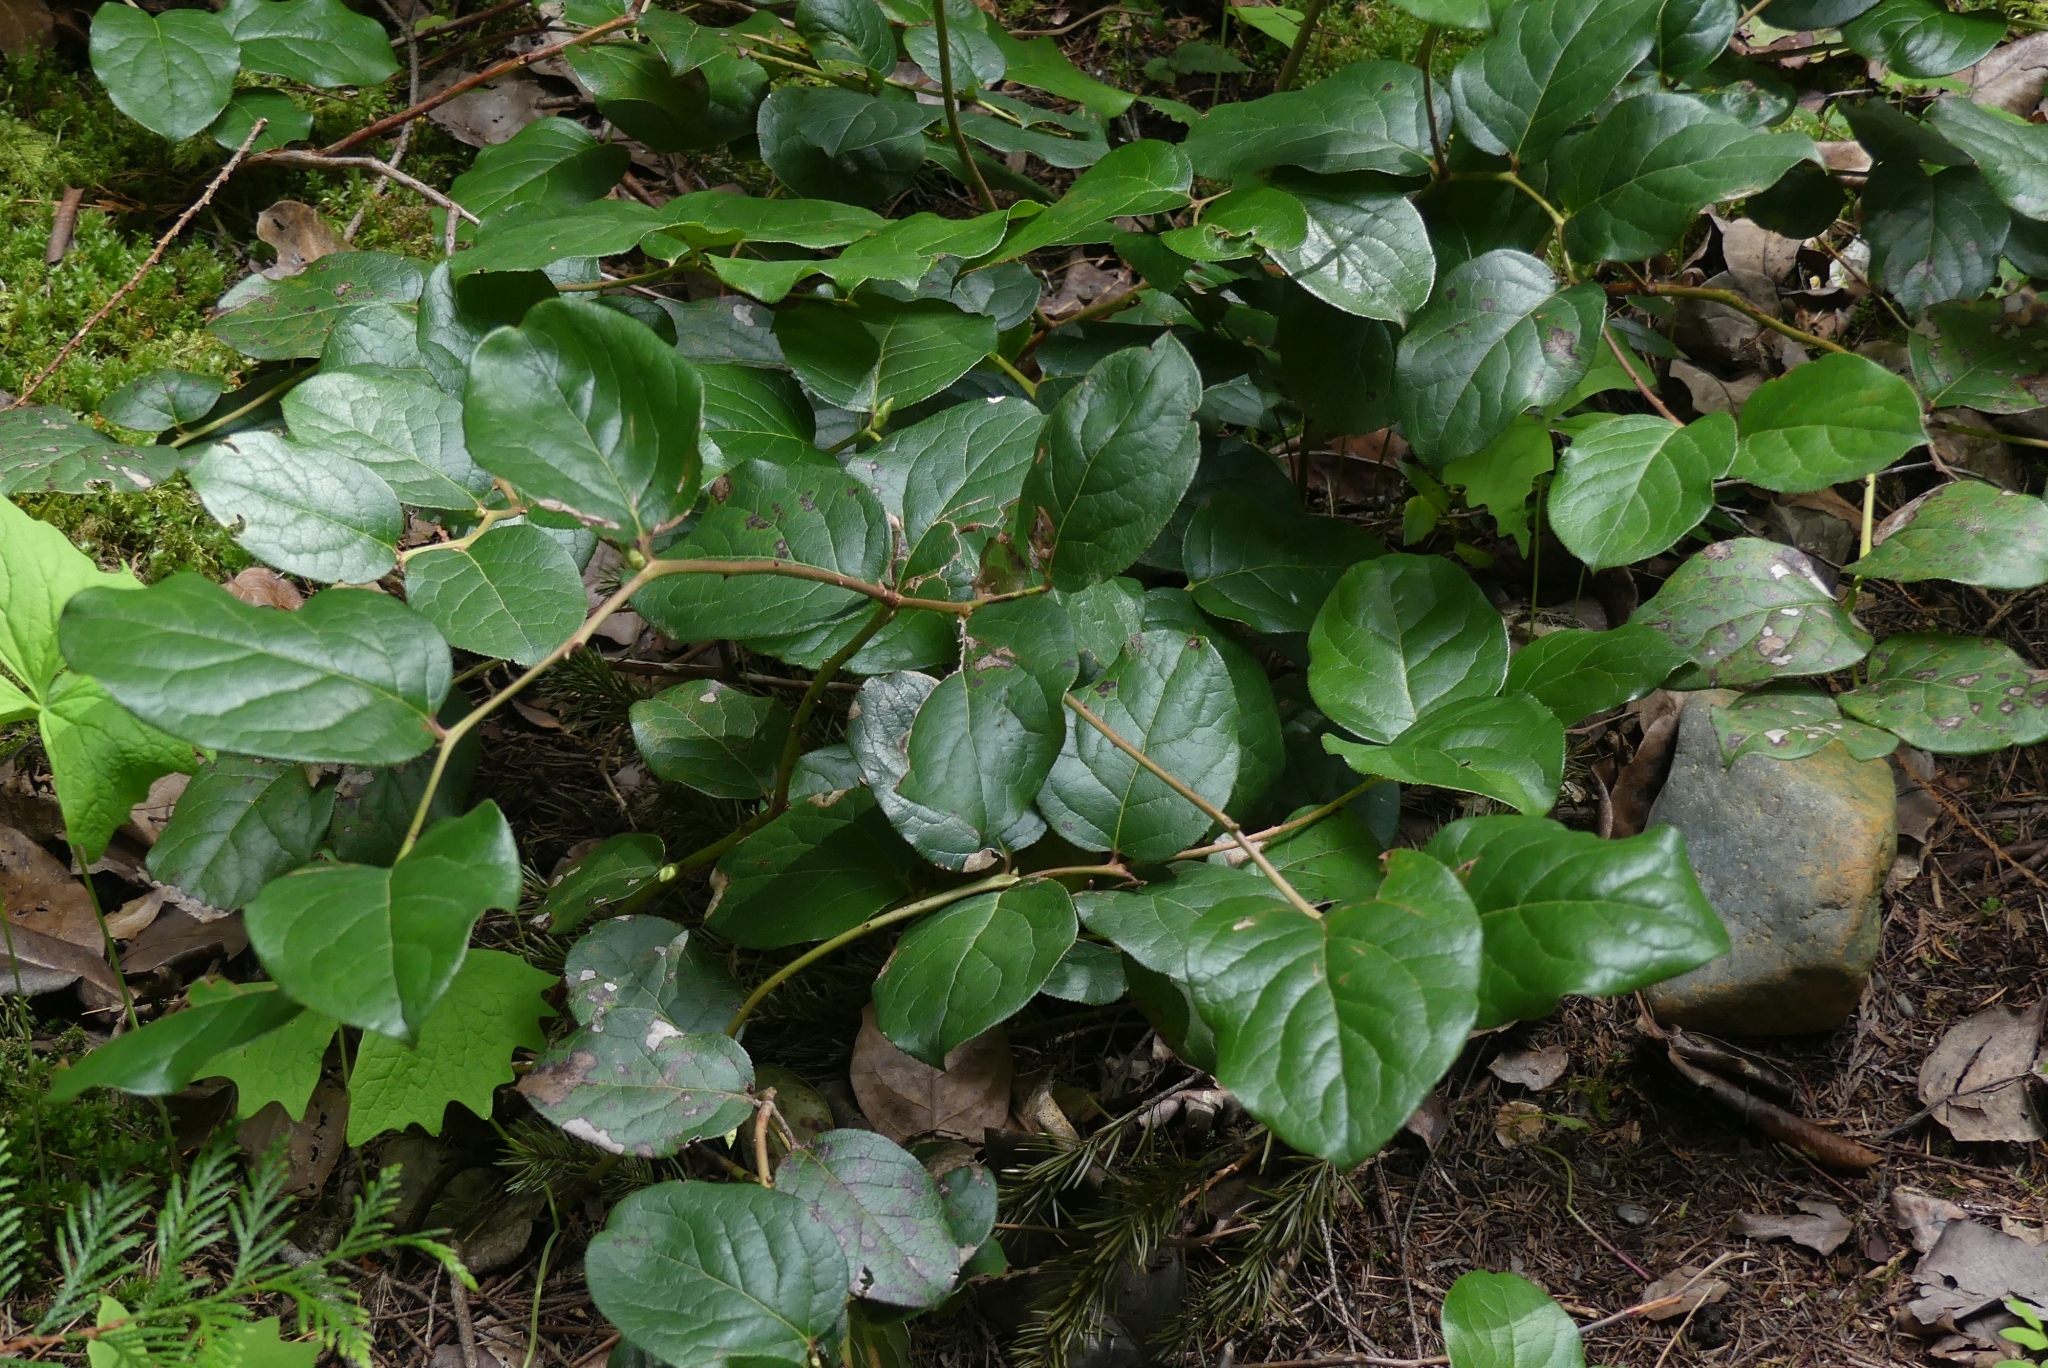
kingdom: Plantae
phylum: Tracheophyta
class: Magnoliopsida
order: Ericales
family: Ericaceae
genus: Gaultheria
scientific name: Gaultheria shallon
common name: Shallon
